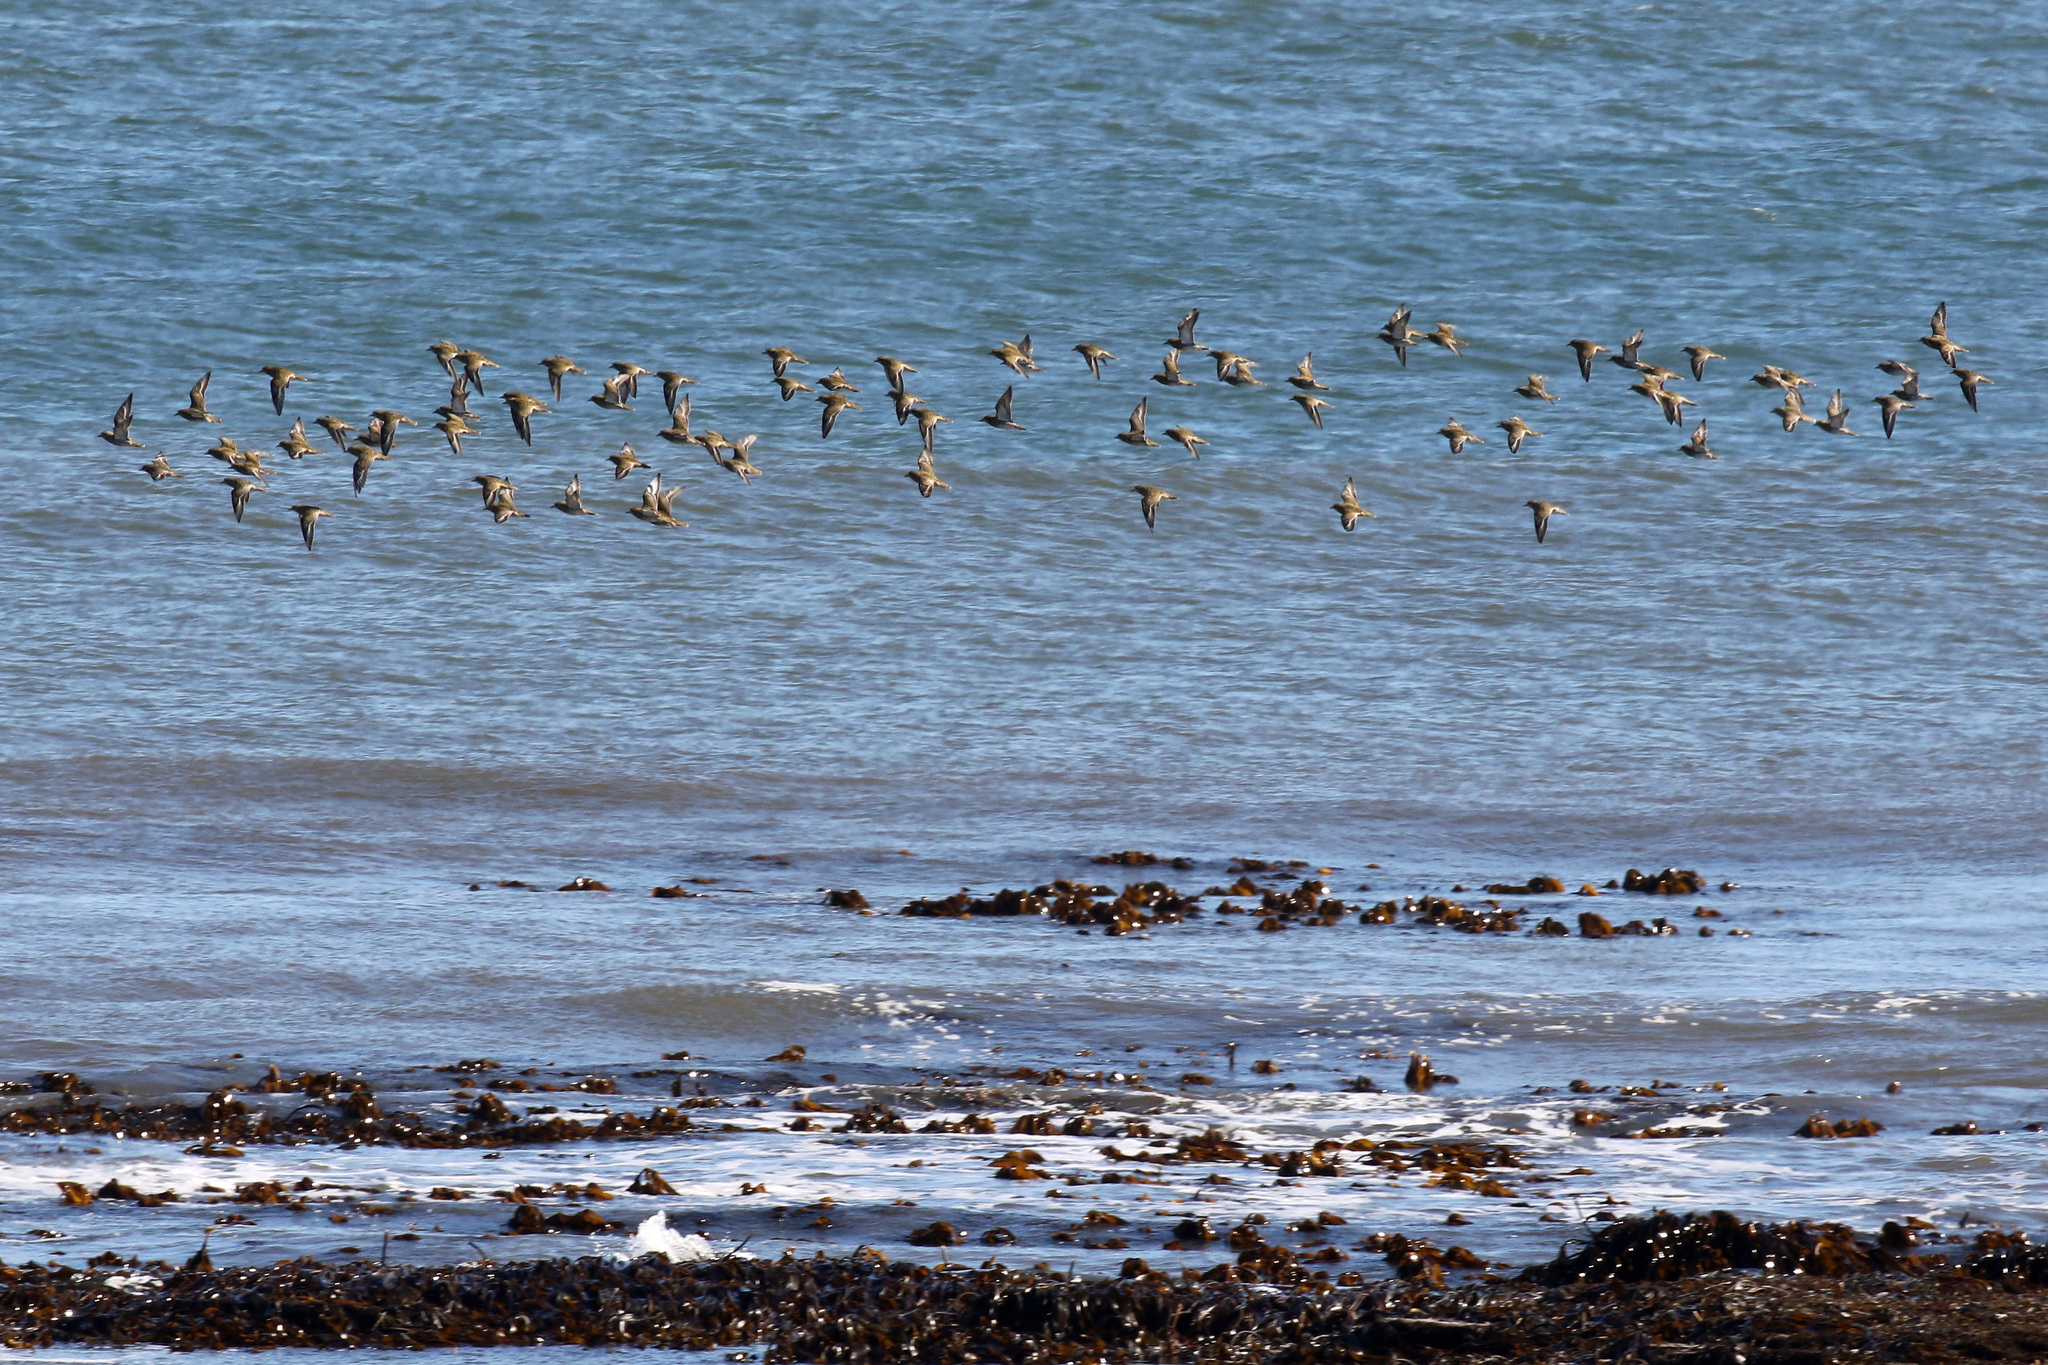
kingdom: Animalia
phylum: Chordata
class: Aves
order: Charadriiformes
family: Charadriidae
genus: Pluvialis
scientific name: Pluvialis apricaria
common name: European golden plover
